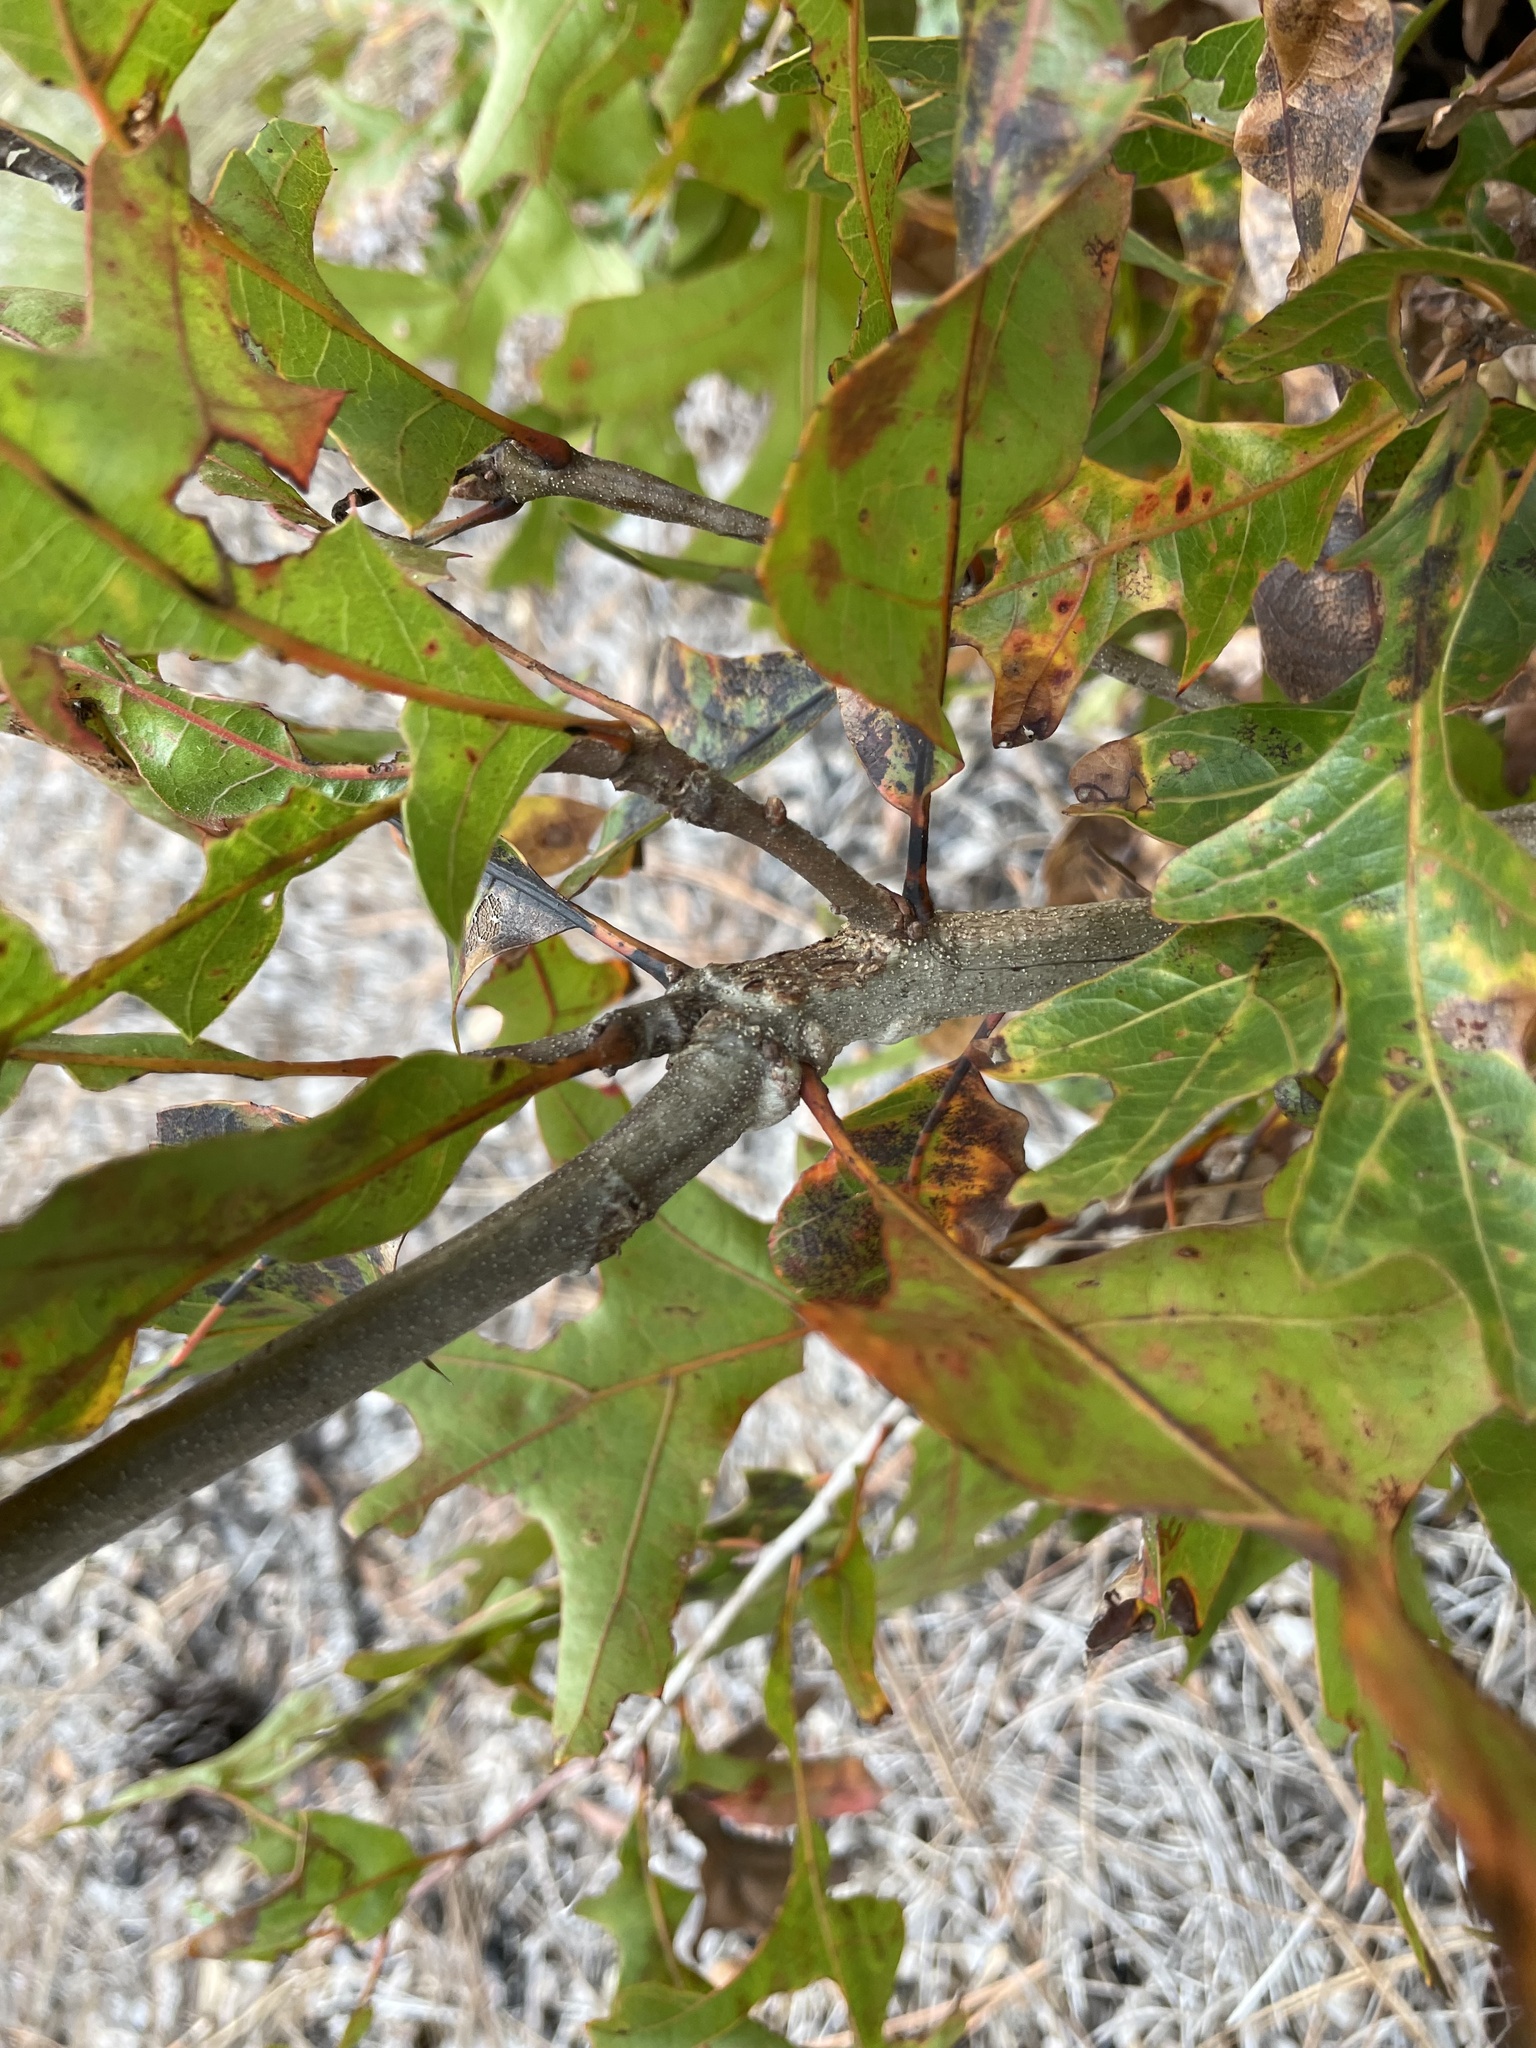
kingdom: Plantae
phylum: Tracheophyta
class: Magnoliopsida
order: Fagales
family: Fagaceae
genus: Quercus
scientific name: Quercus laevis
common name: Turkey oak
